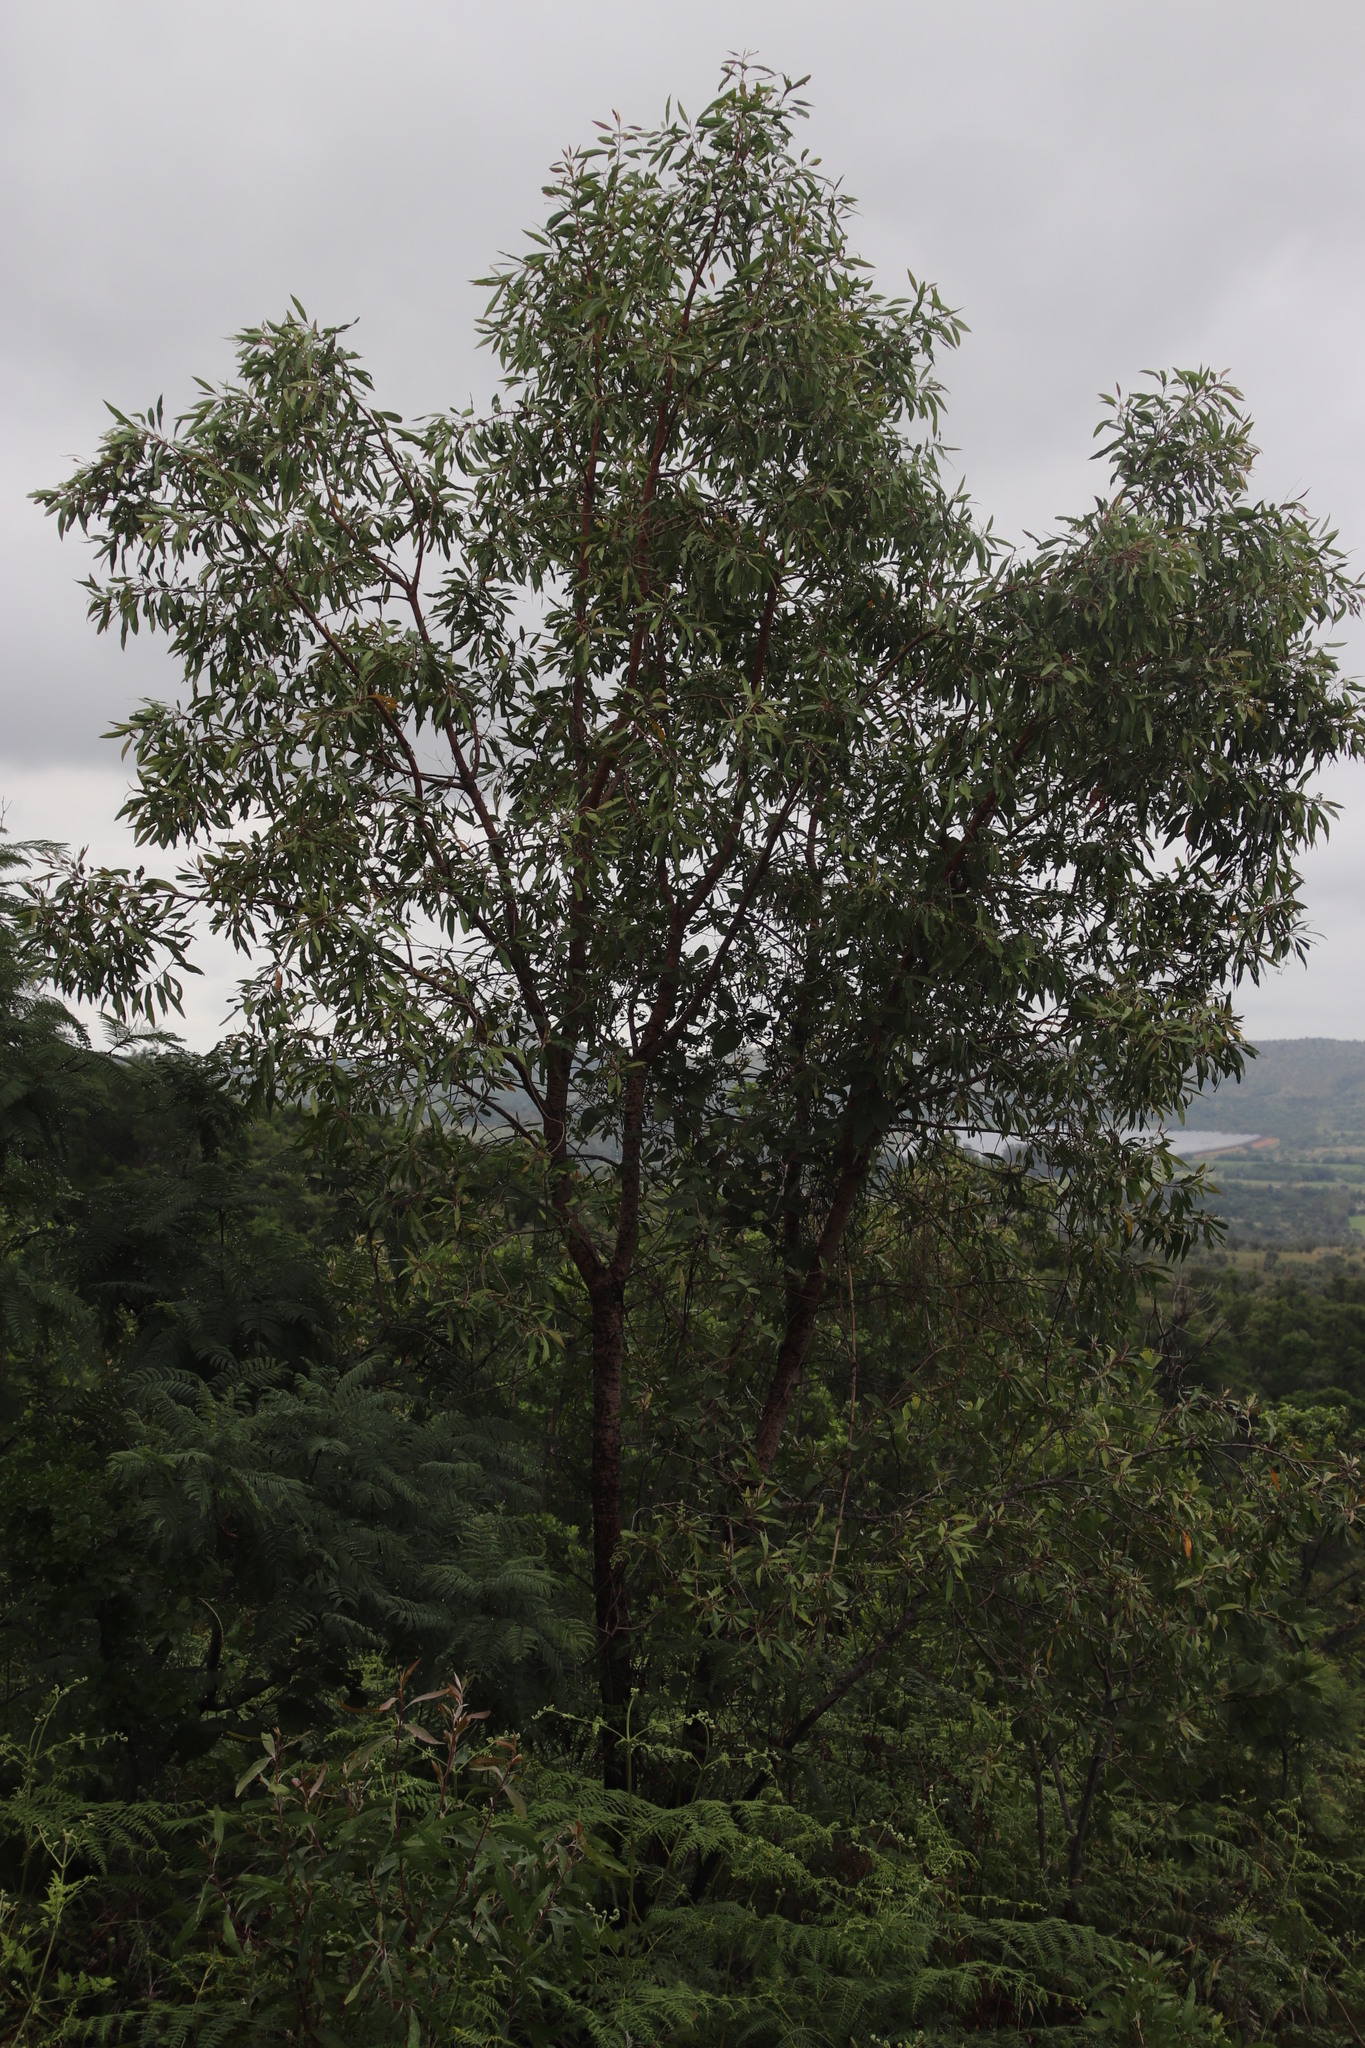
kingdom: Plantae
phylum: Tracheophyta
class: Magnoliopsida
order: Proteales
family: Proteaceae
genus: Faurea
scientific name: Faurea saligna
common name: African bean
